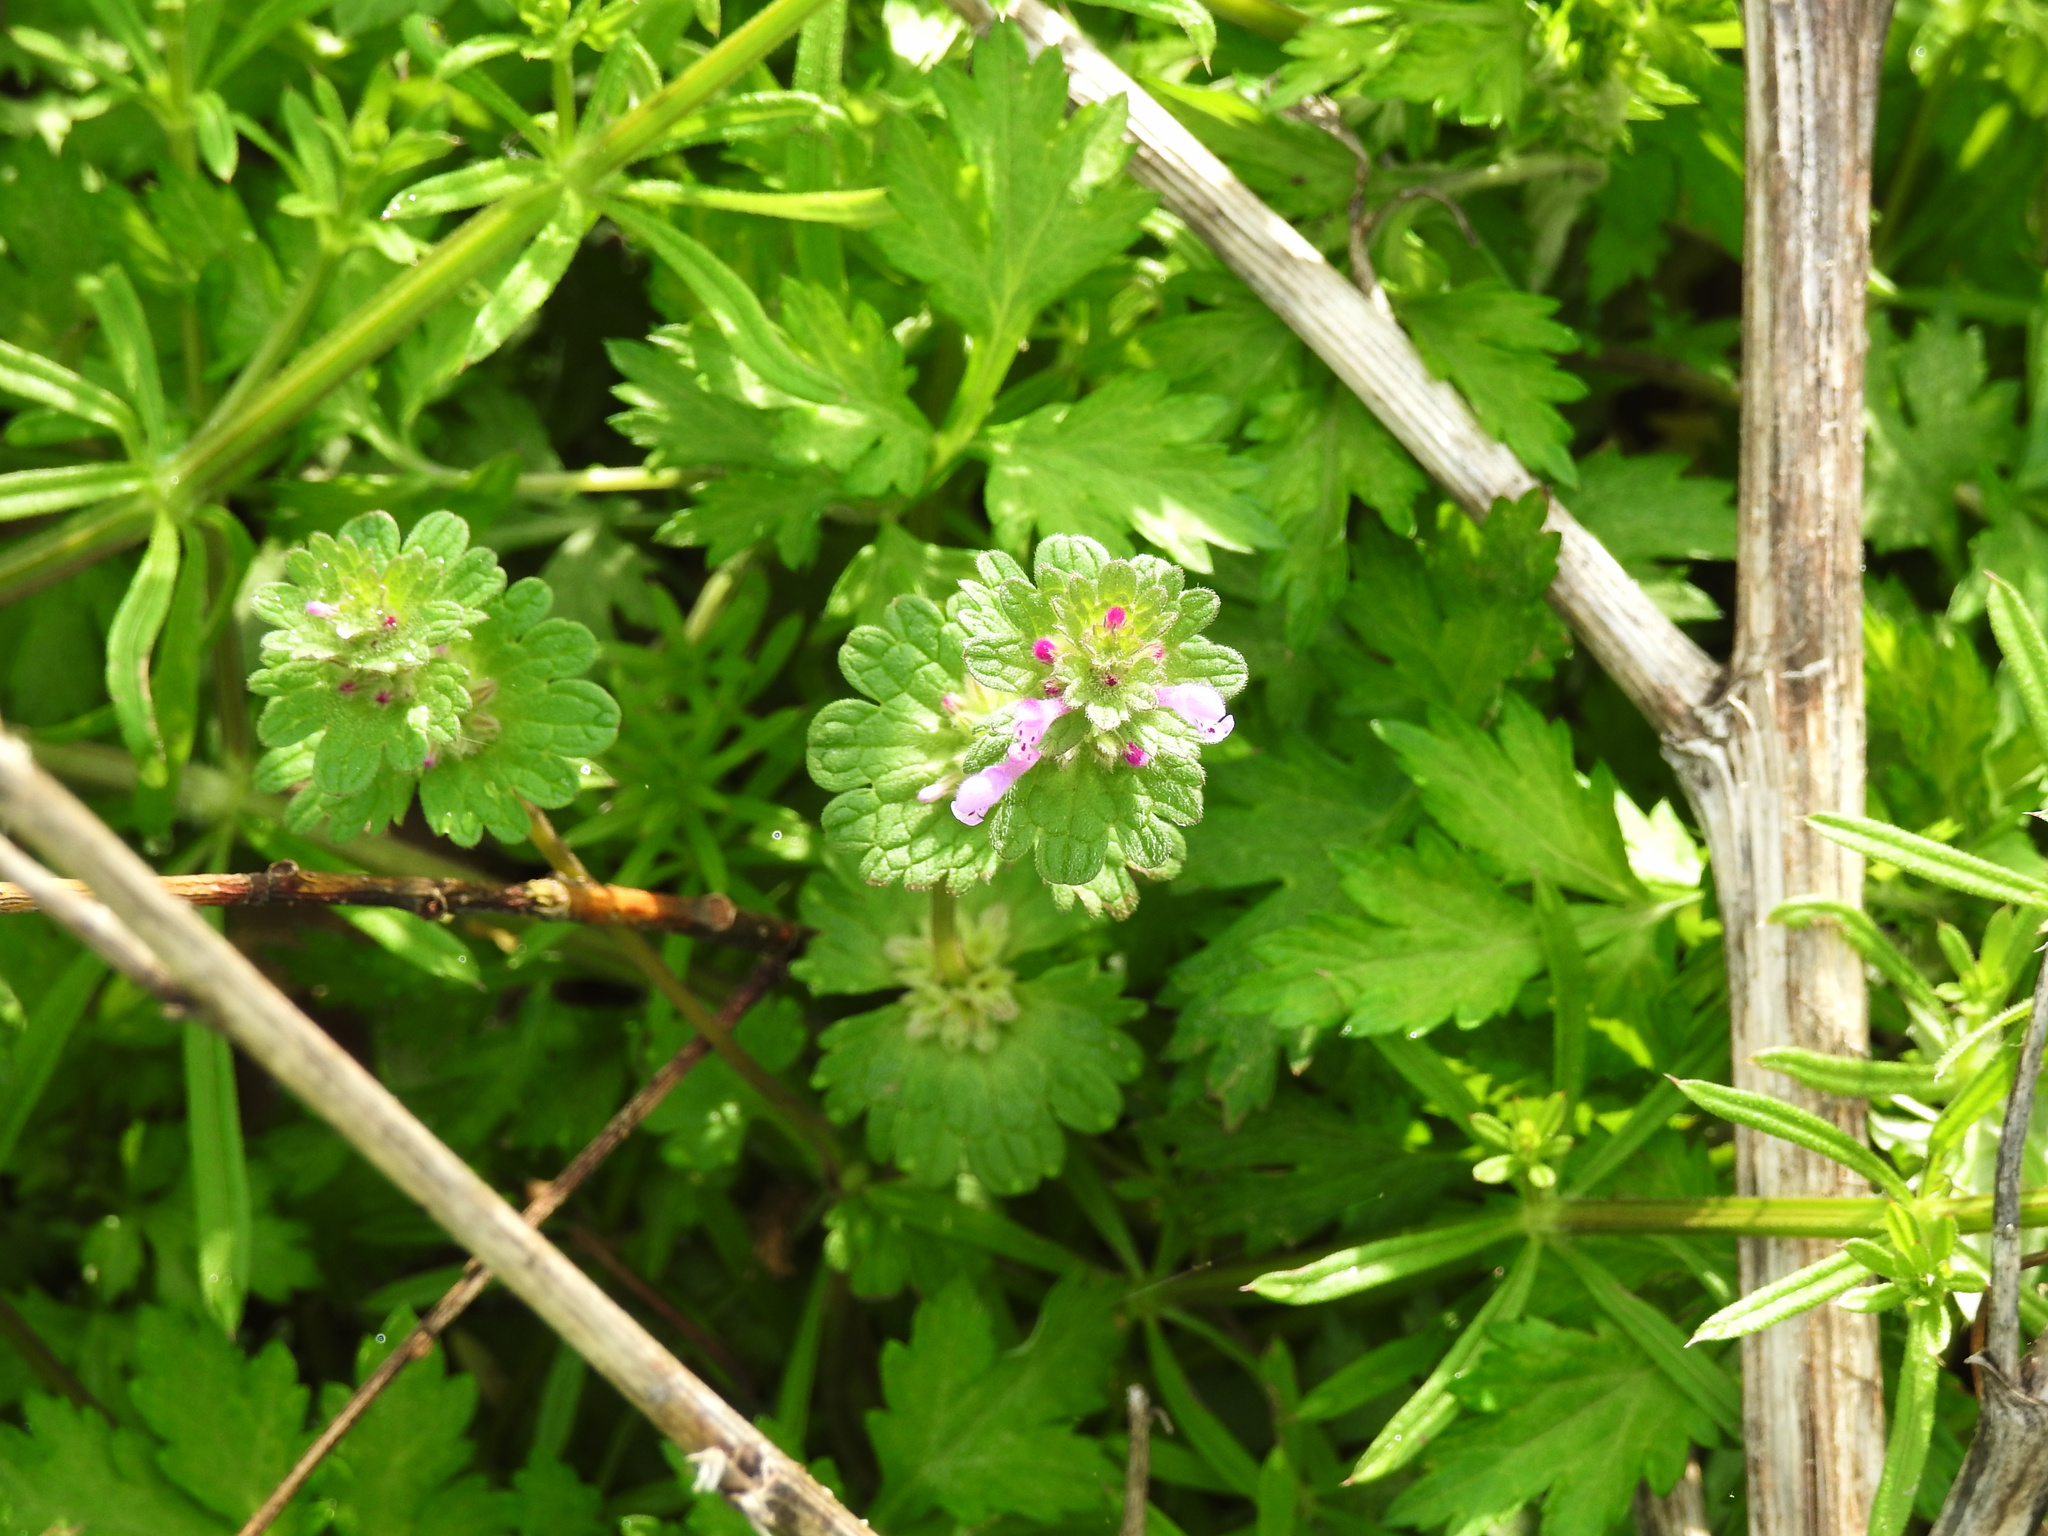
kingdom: Plantae
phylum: Tracheophyta
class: Magnoliopsida
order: Lamiales
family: Lamiaceae
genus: Lamium
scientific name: Lamium amplexicaule
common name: Henbit dead-nettle
